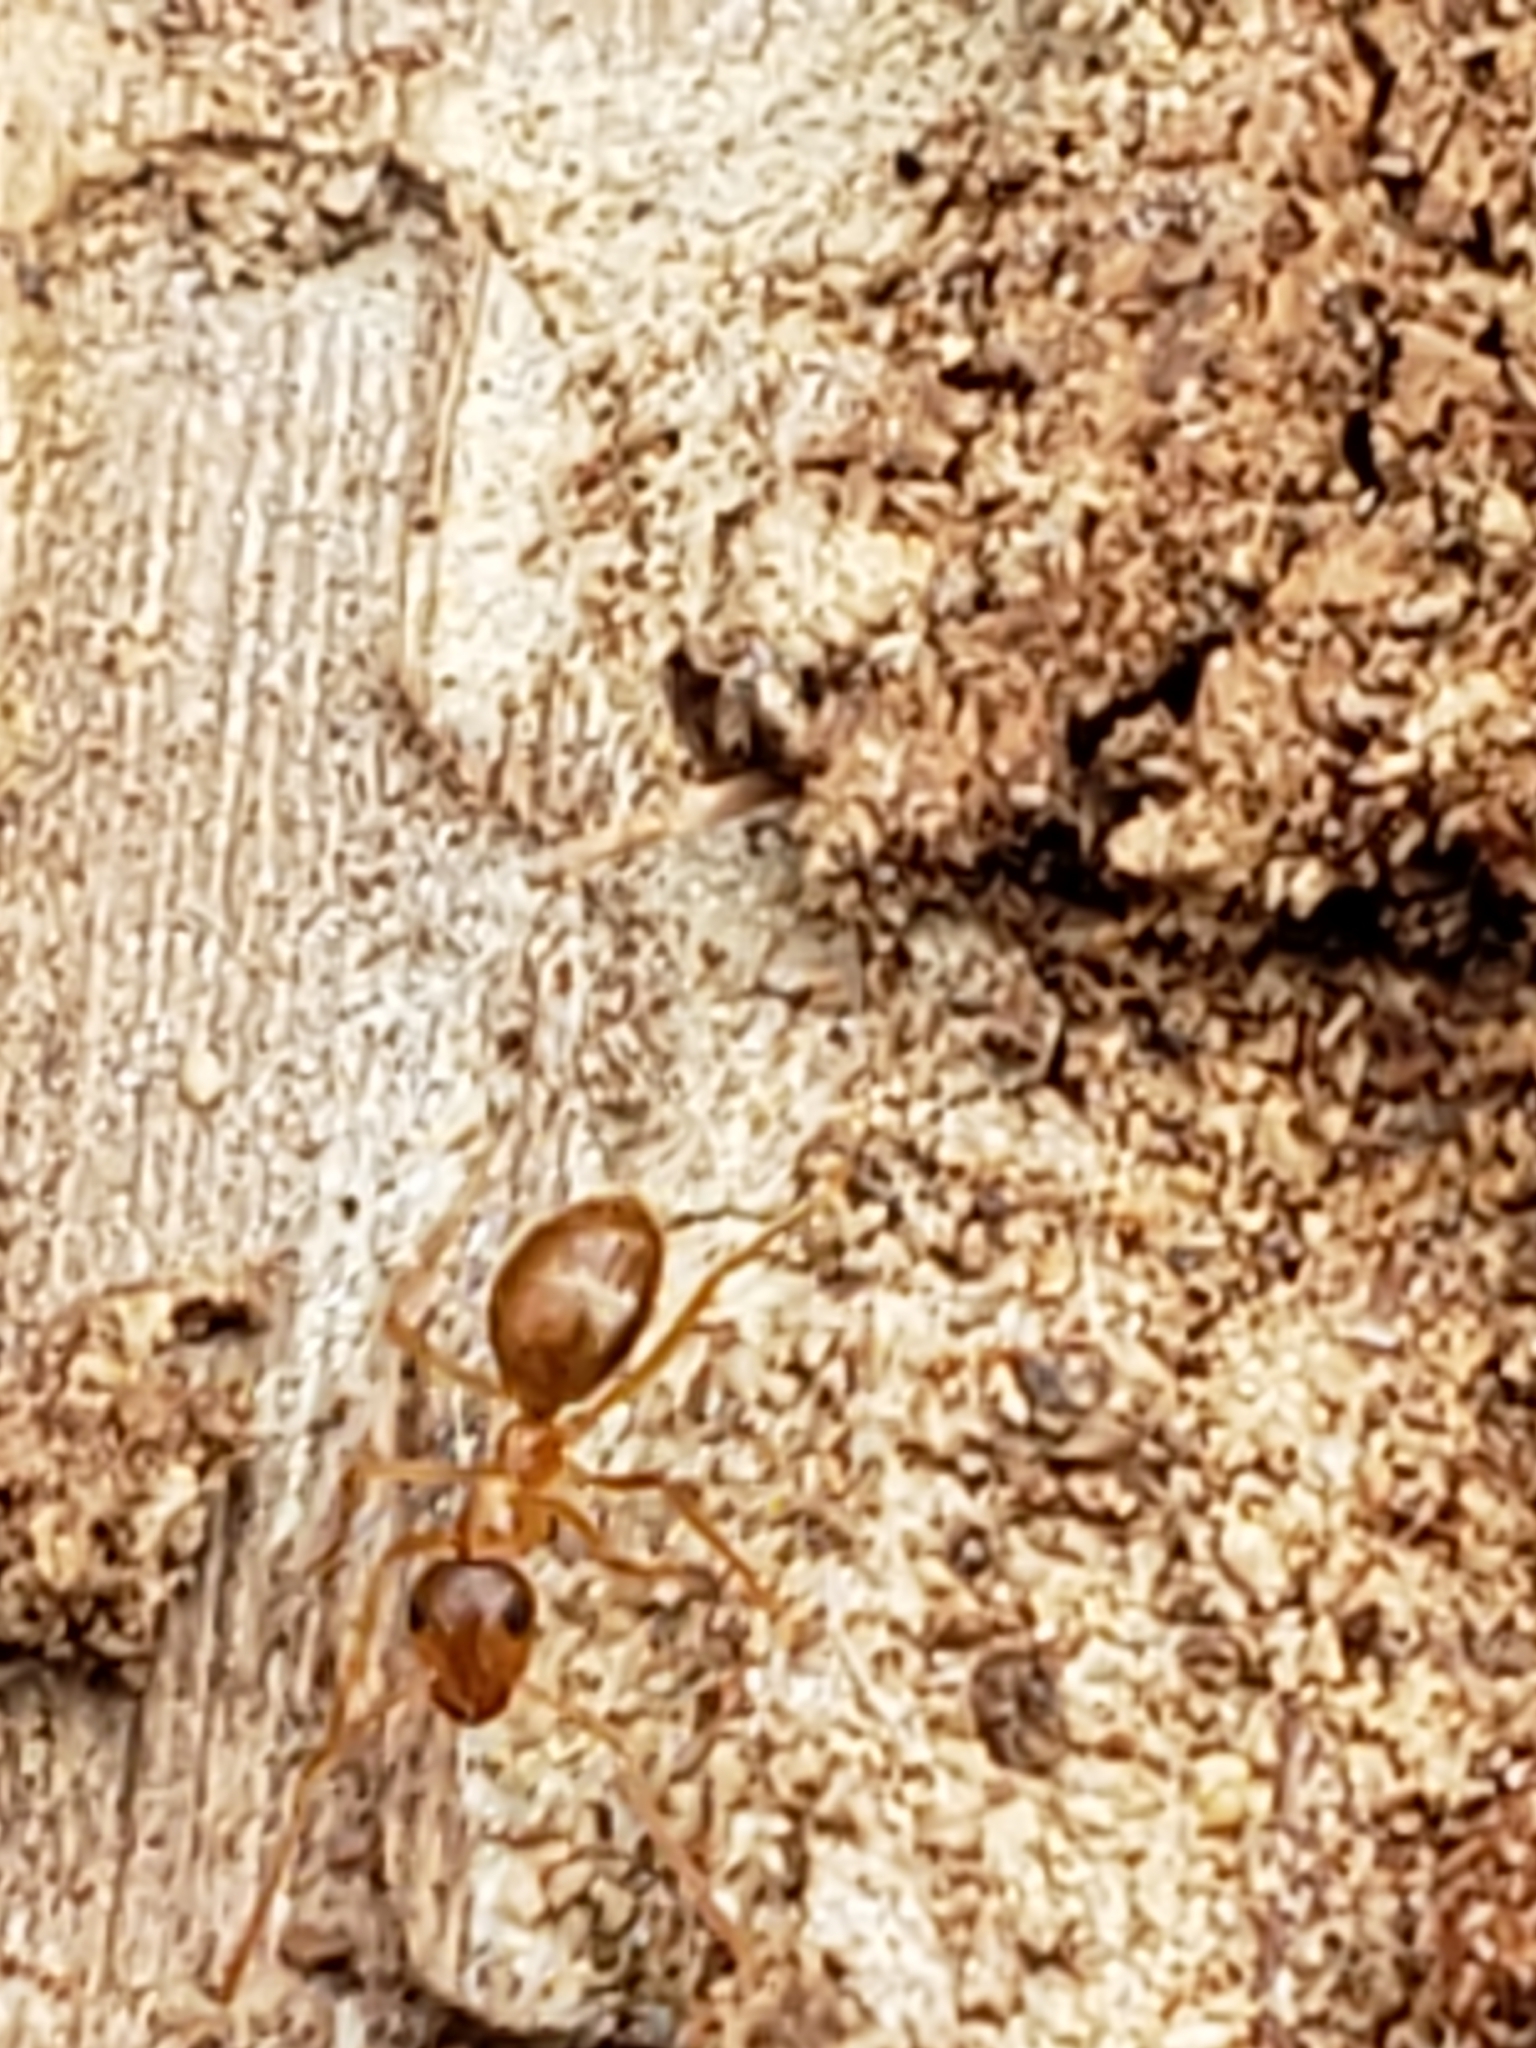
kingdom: Animalia
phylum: Arthropoda
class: Insecta
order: Hymenoptera
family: Formicidae
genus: Prenolepis
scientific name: Prenolepis imparis
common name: Small honey ant
